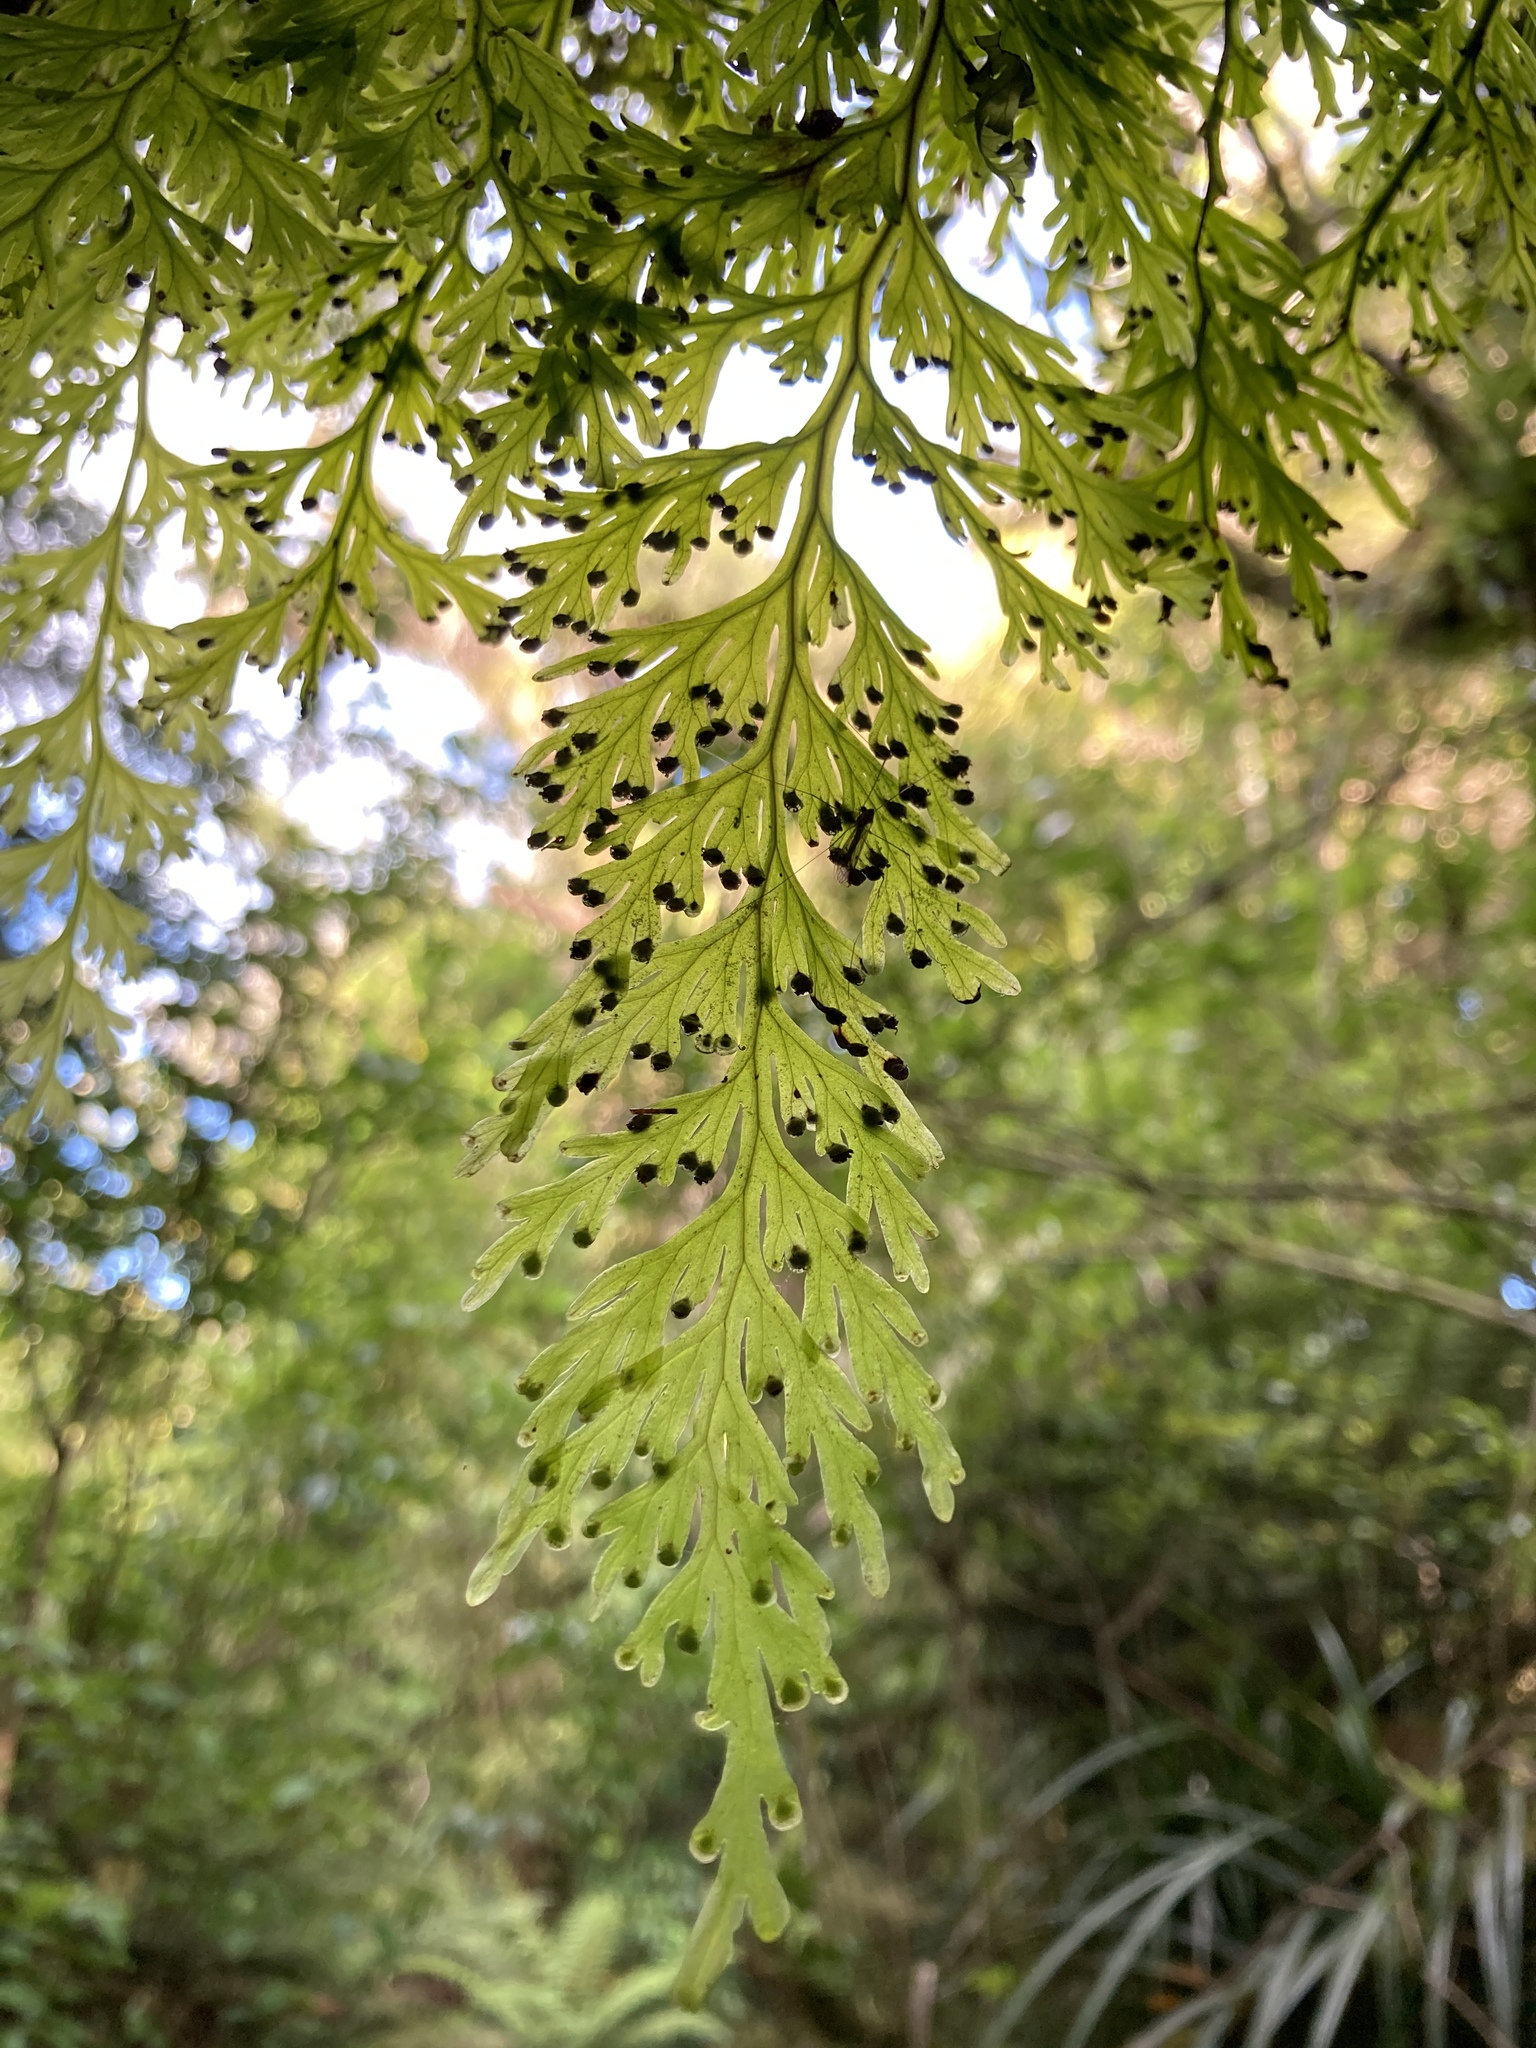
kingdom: Plantae
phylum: Tracheophyta
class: Polypodiopsida
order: Hymenophyllales
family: Hymenophyllaceae
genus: Hymenophyllum
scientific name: Hymenophyllum dilatatum
